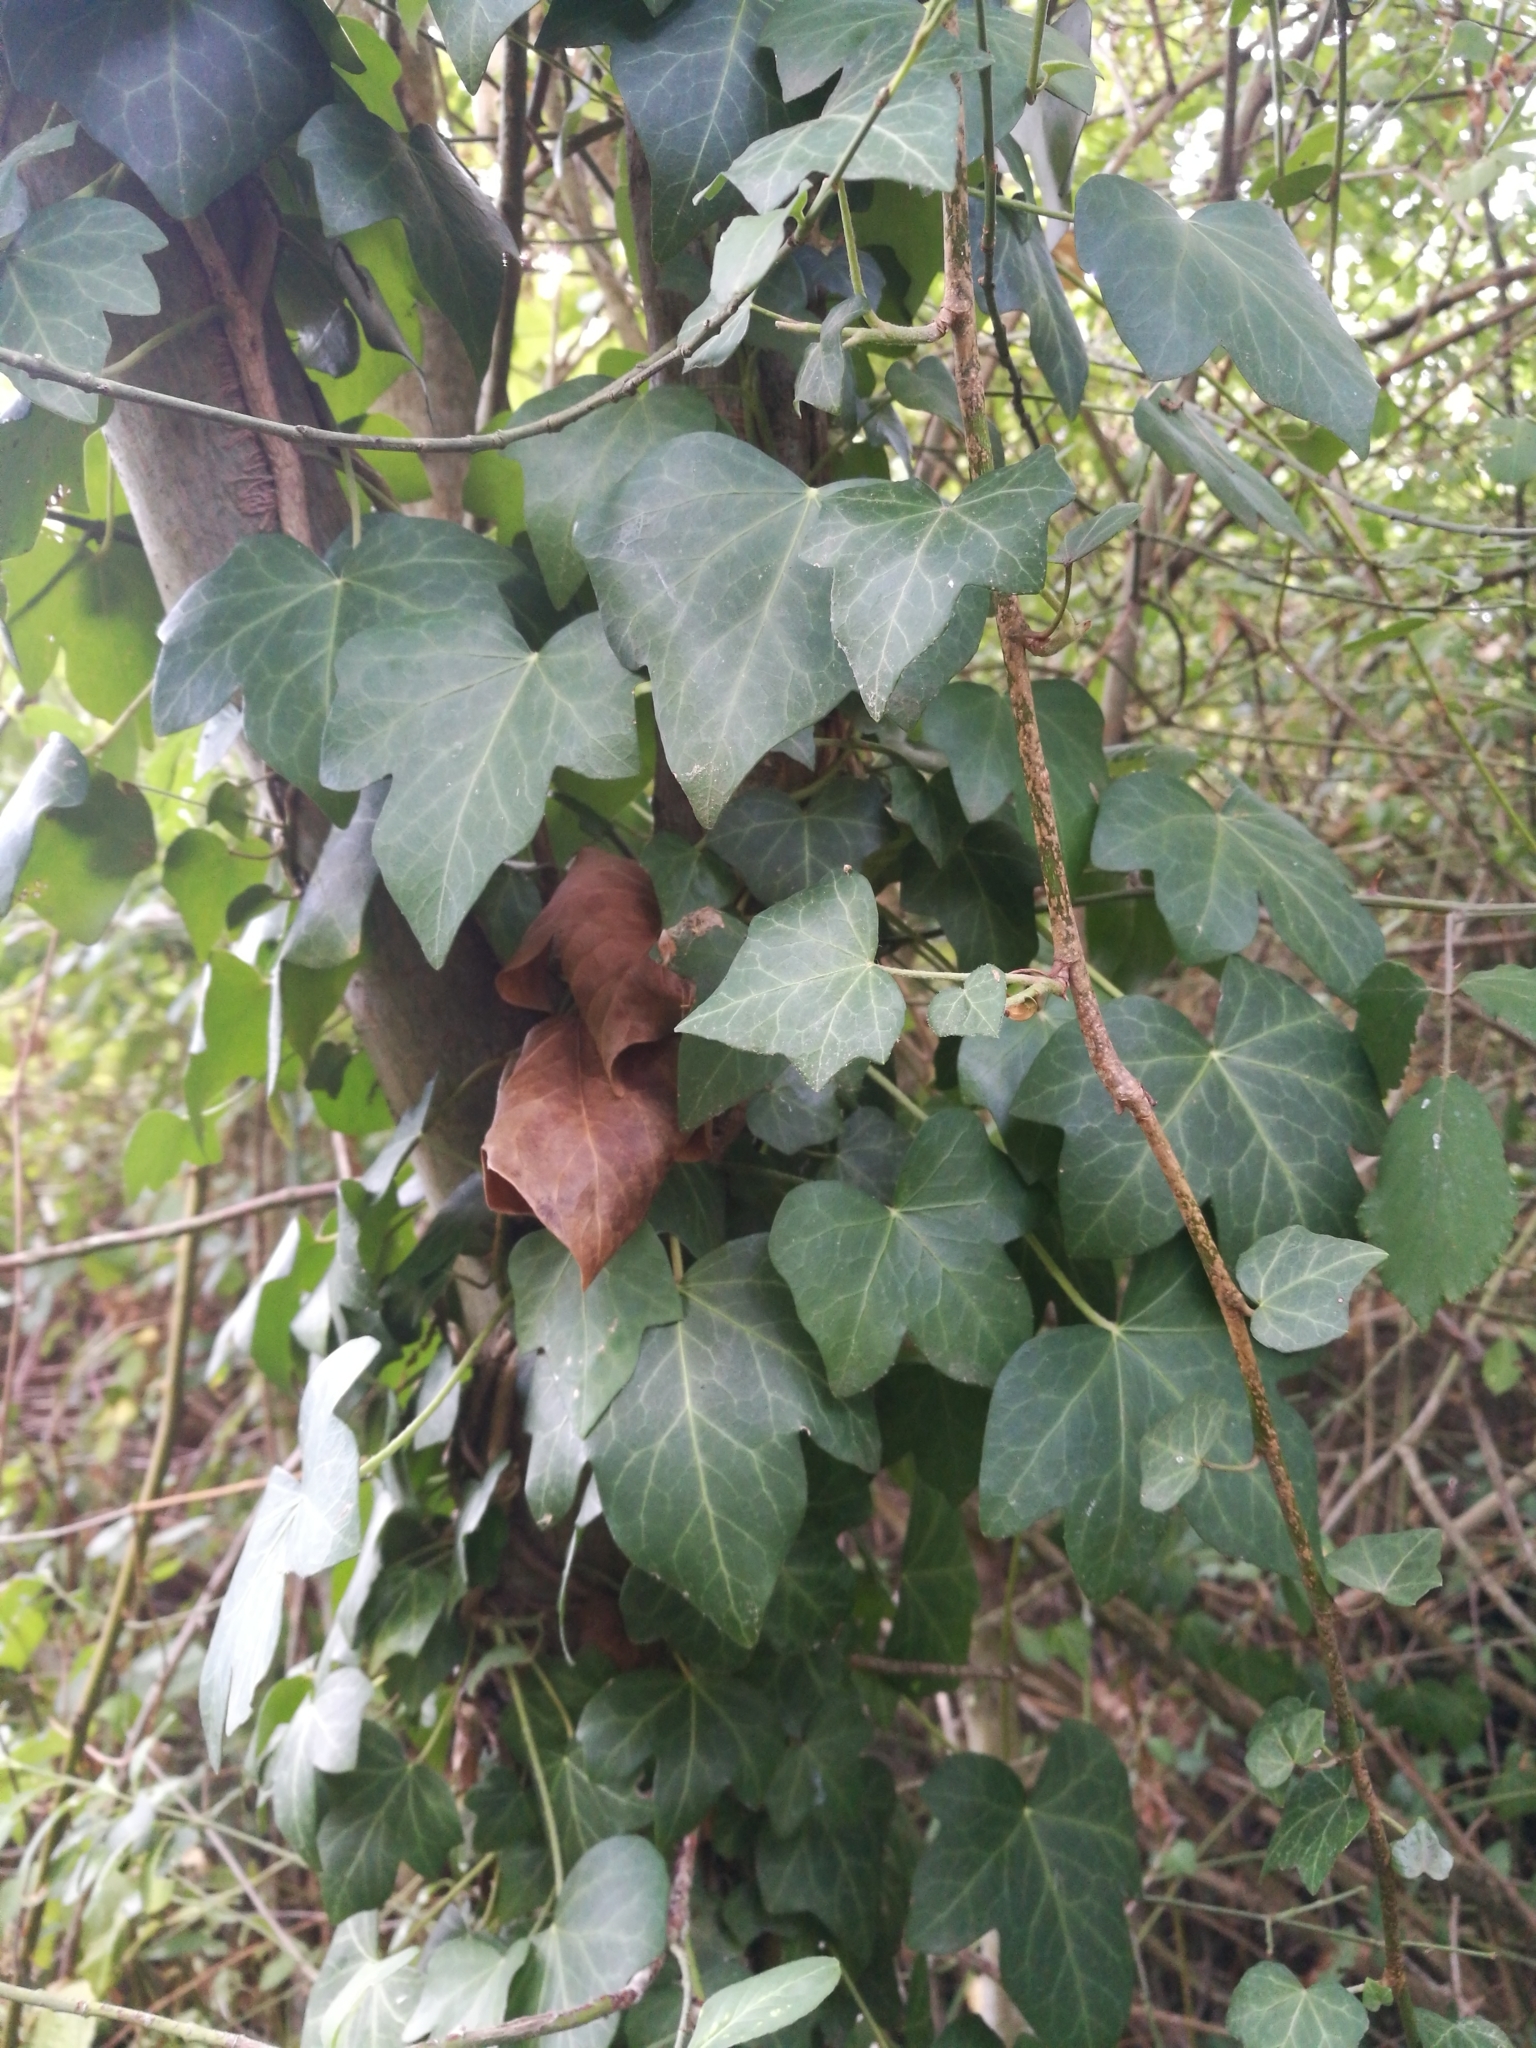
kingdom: Plantae
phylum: Tracheophyta
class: Magnoliopsida
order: Apiales
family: Araliaceae
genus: Hedera
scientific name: Hedera helix
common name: Ivy
